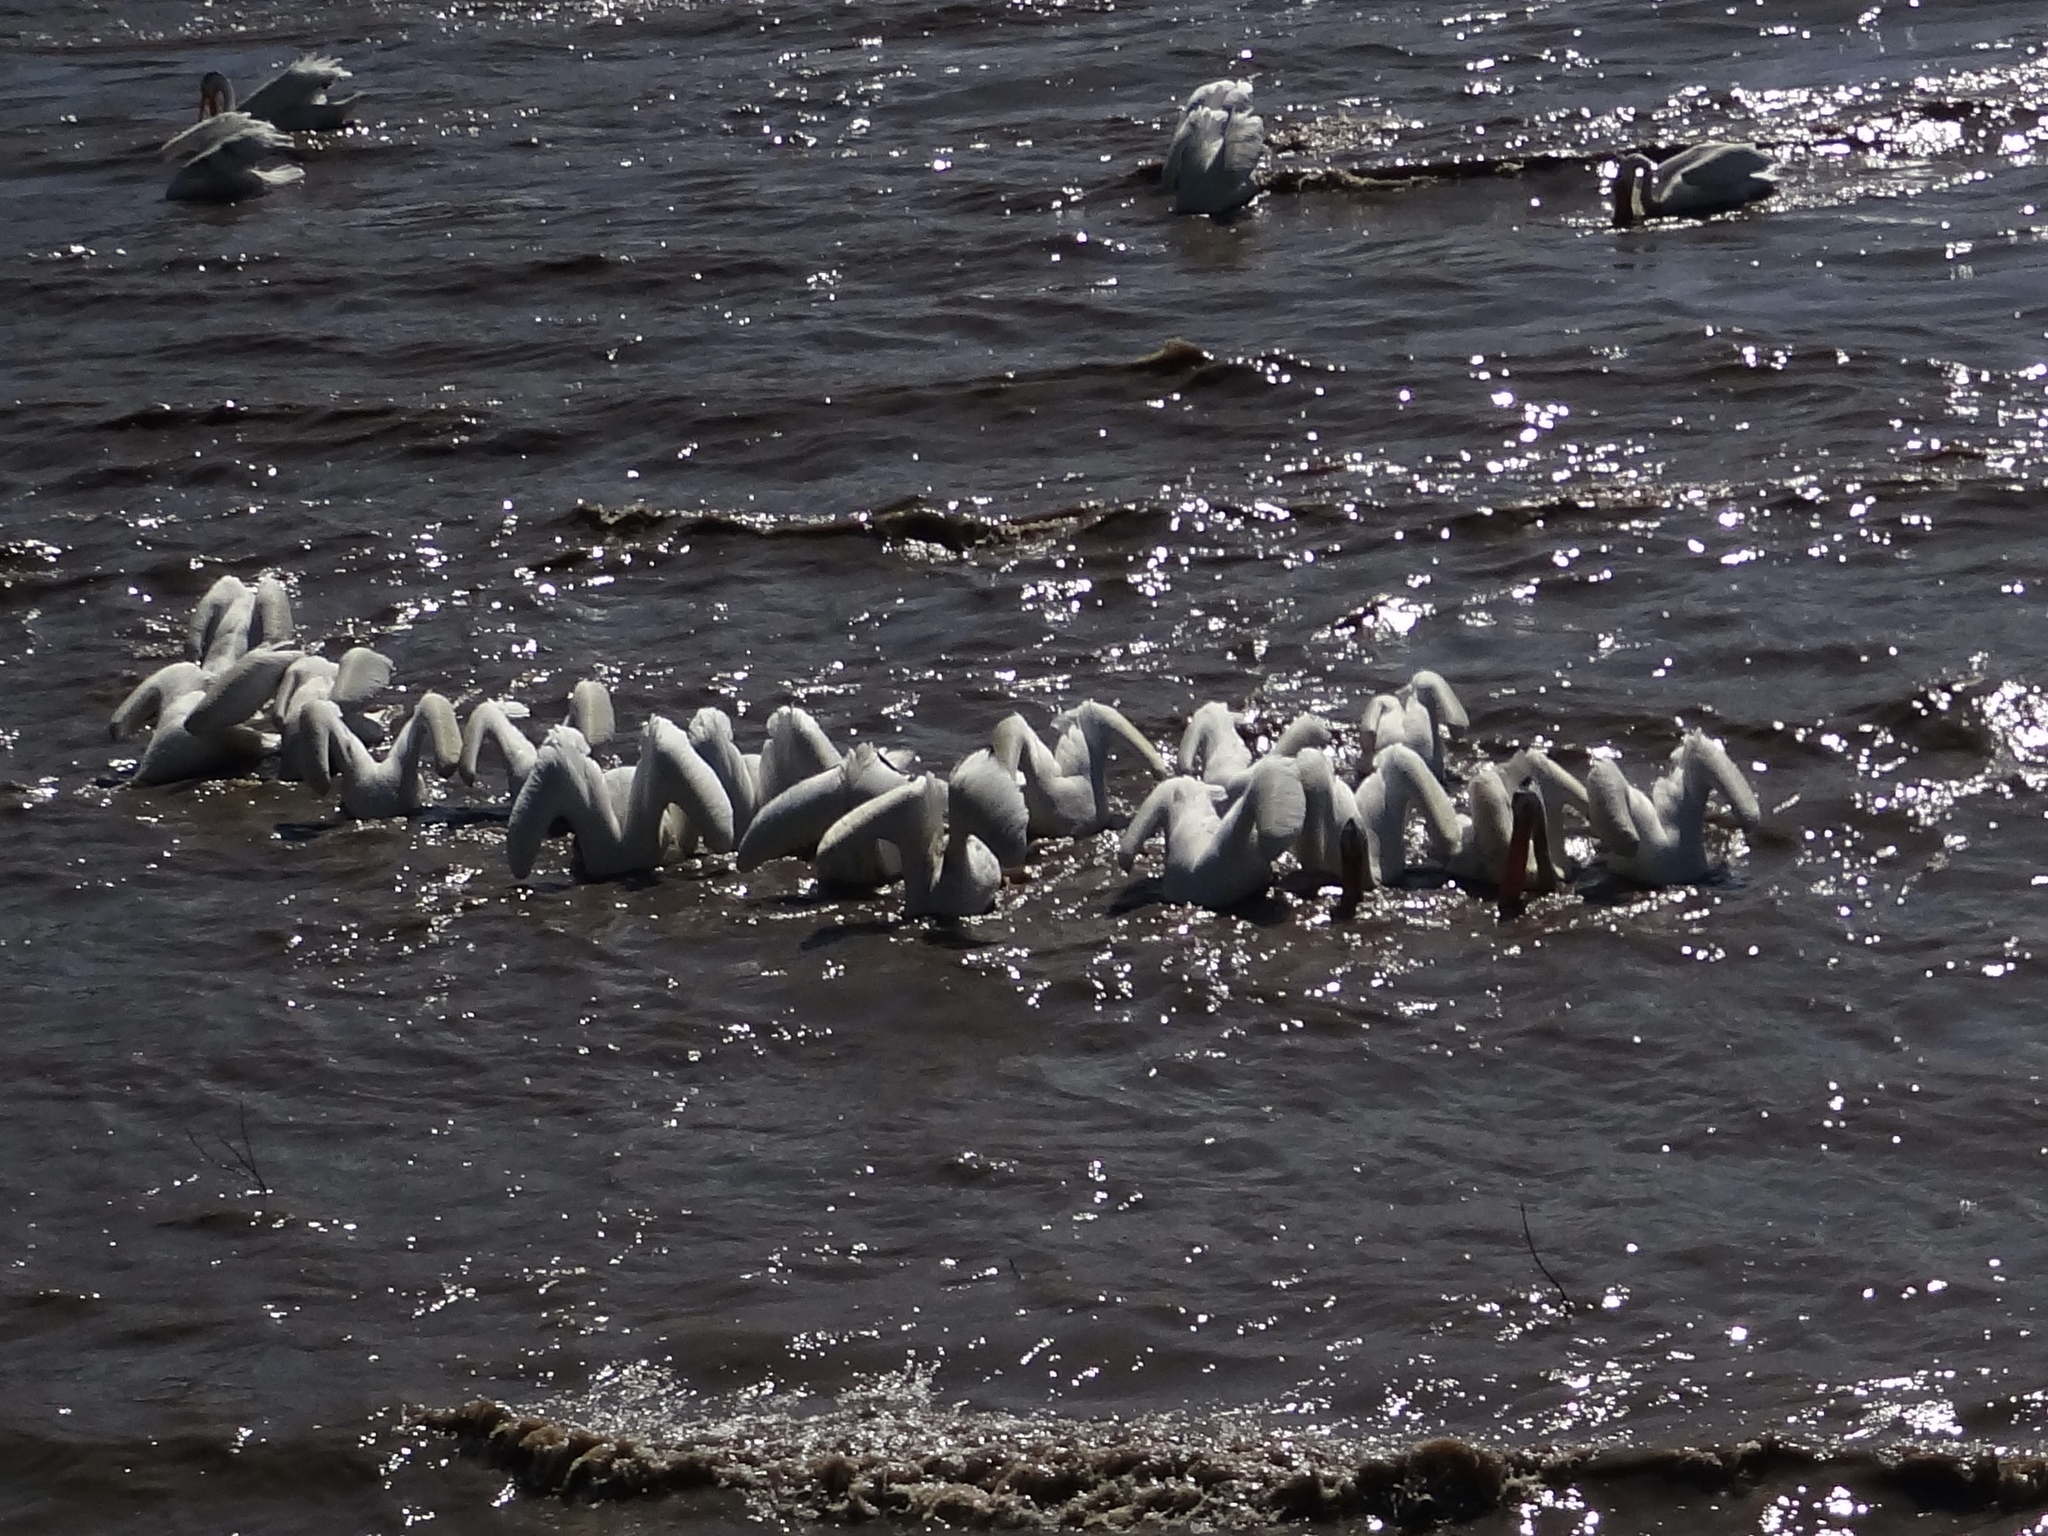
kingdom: Animalia
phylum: Chordata
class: Aves
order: Pelecaniformes
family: Pelecanidae
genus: Pelecanus
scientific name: Pelecanus erythrorhynchos
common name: American white pelican
